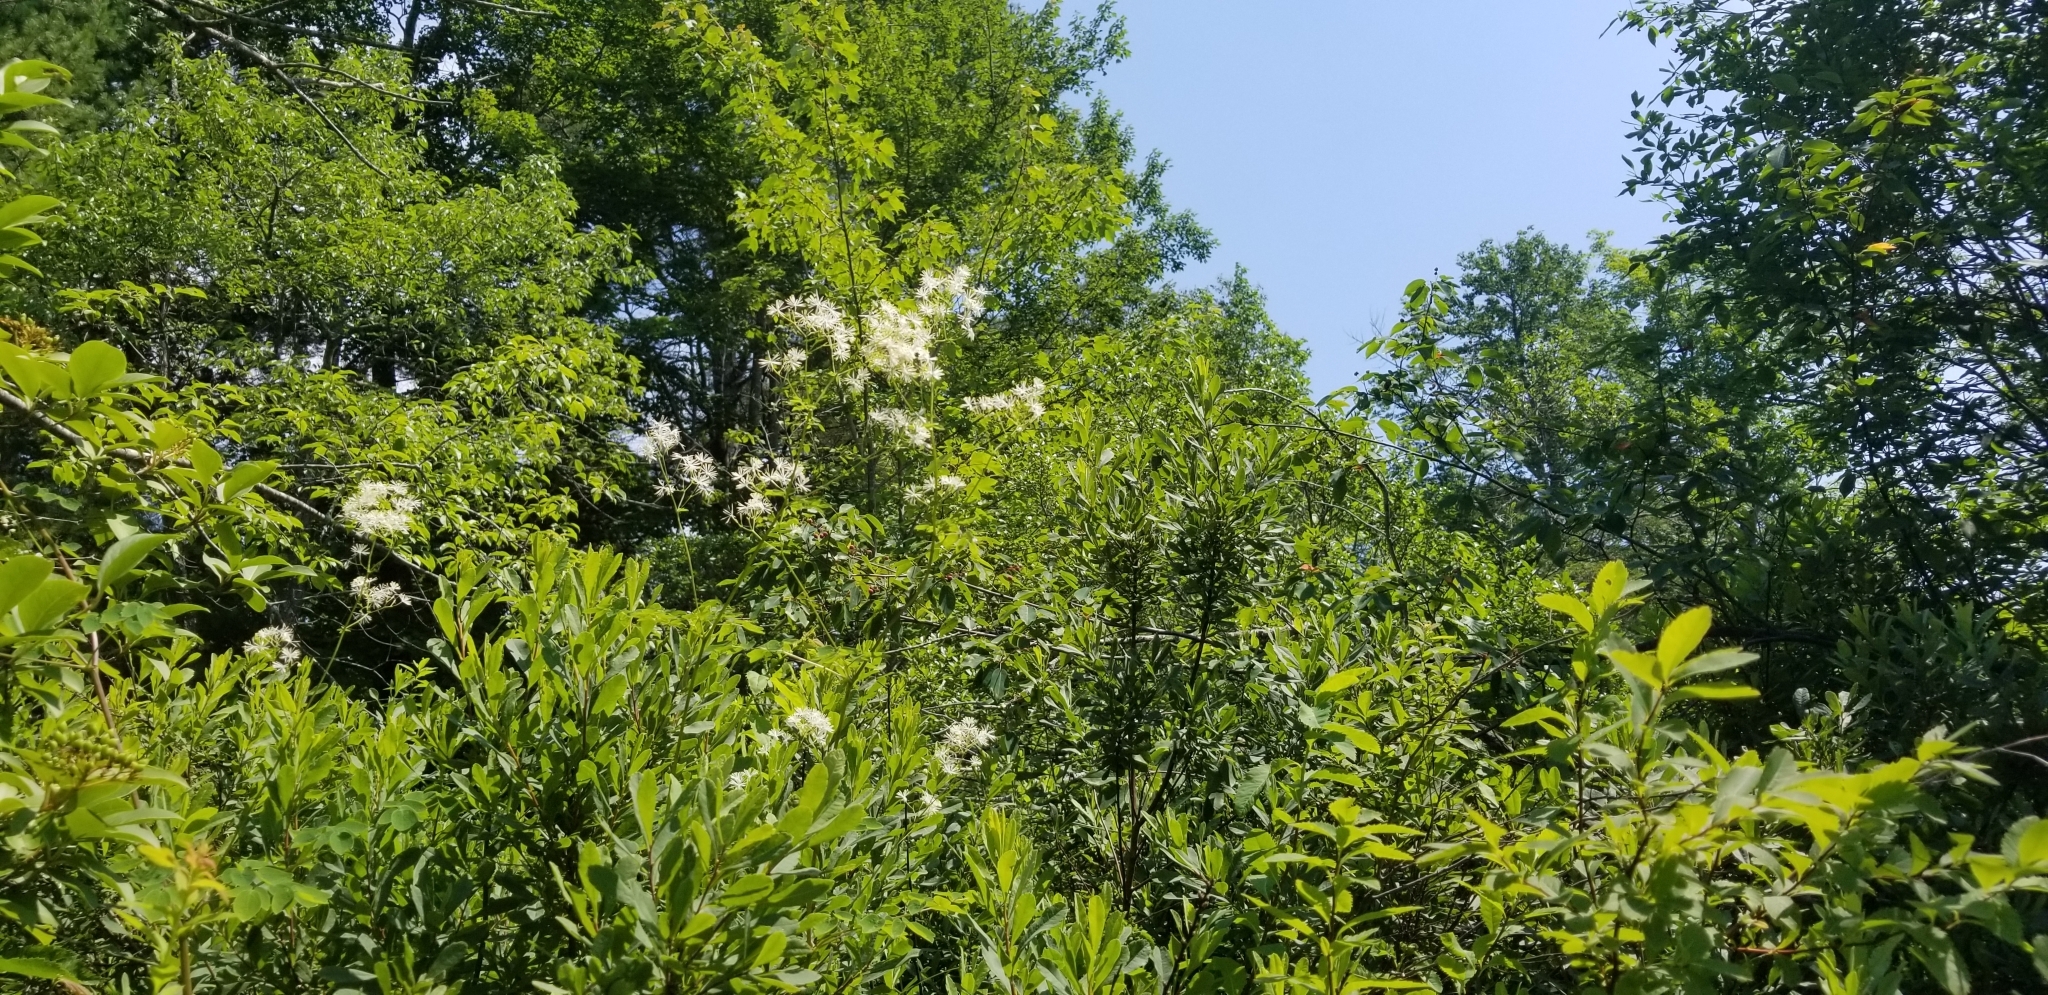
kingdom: Plantae
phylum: Tracheophyta
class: Magnoliopsida
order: Ranunculales
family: Ranunculaceae
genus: Thalictrum
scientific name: Thalictrum pubescens
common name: King-of-the-meadow
